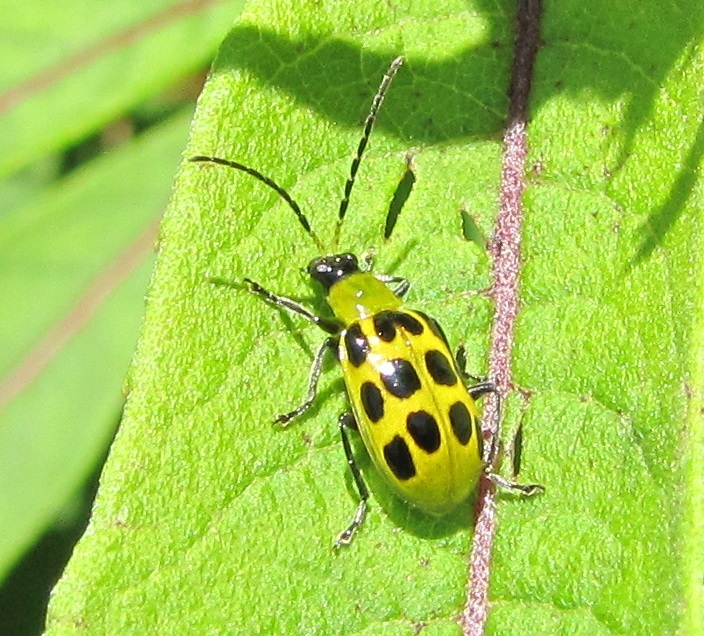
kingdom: Animalia
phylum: Arthropoda
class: Insecta
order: Coleoptera
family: Chrysomelidae
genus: Diabrotica
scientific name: Diabrotica undecimpunctata
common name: Spotted cucumber beetle
